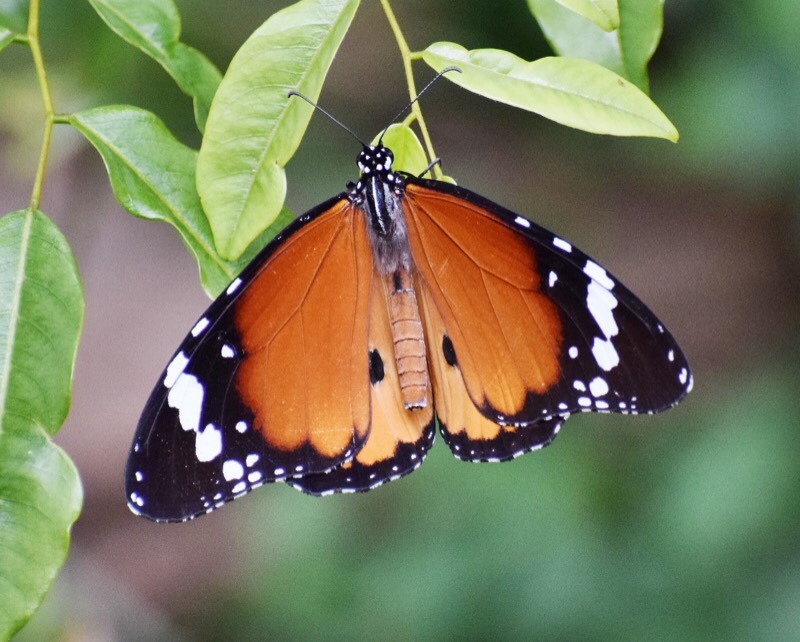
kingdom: Animalia
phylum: Arthropoda
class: Insecta
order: Lepidoptera
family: Nymphalidae
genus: Danaus
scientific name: Danaus chrysippus
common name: Plain tiger
